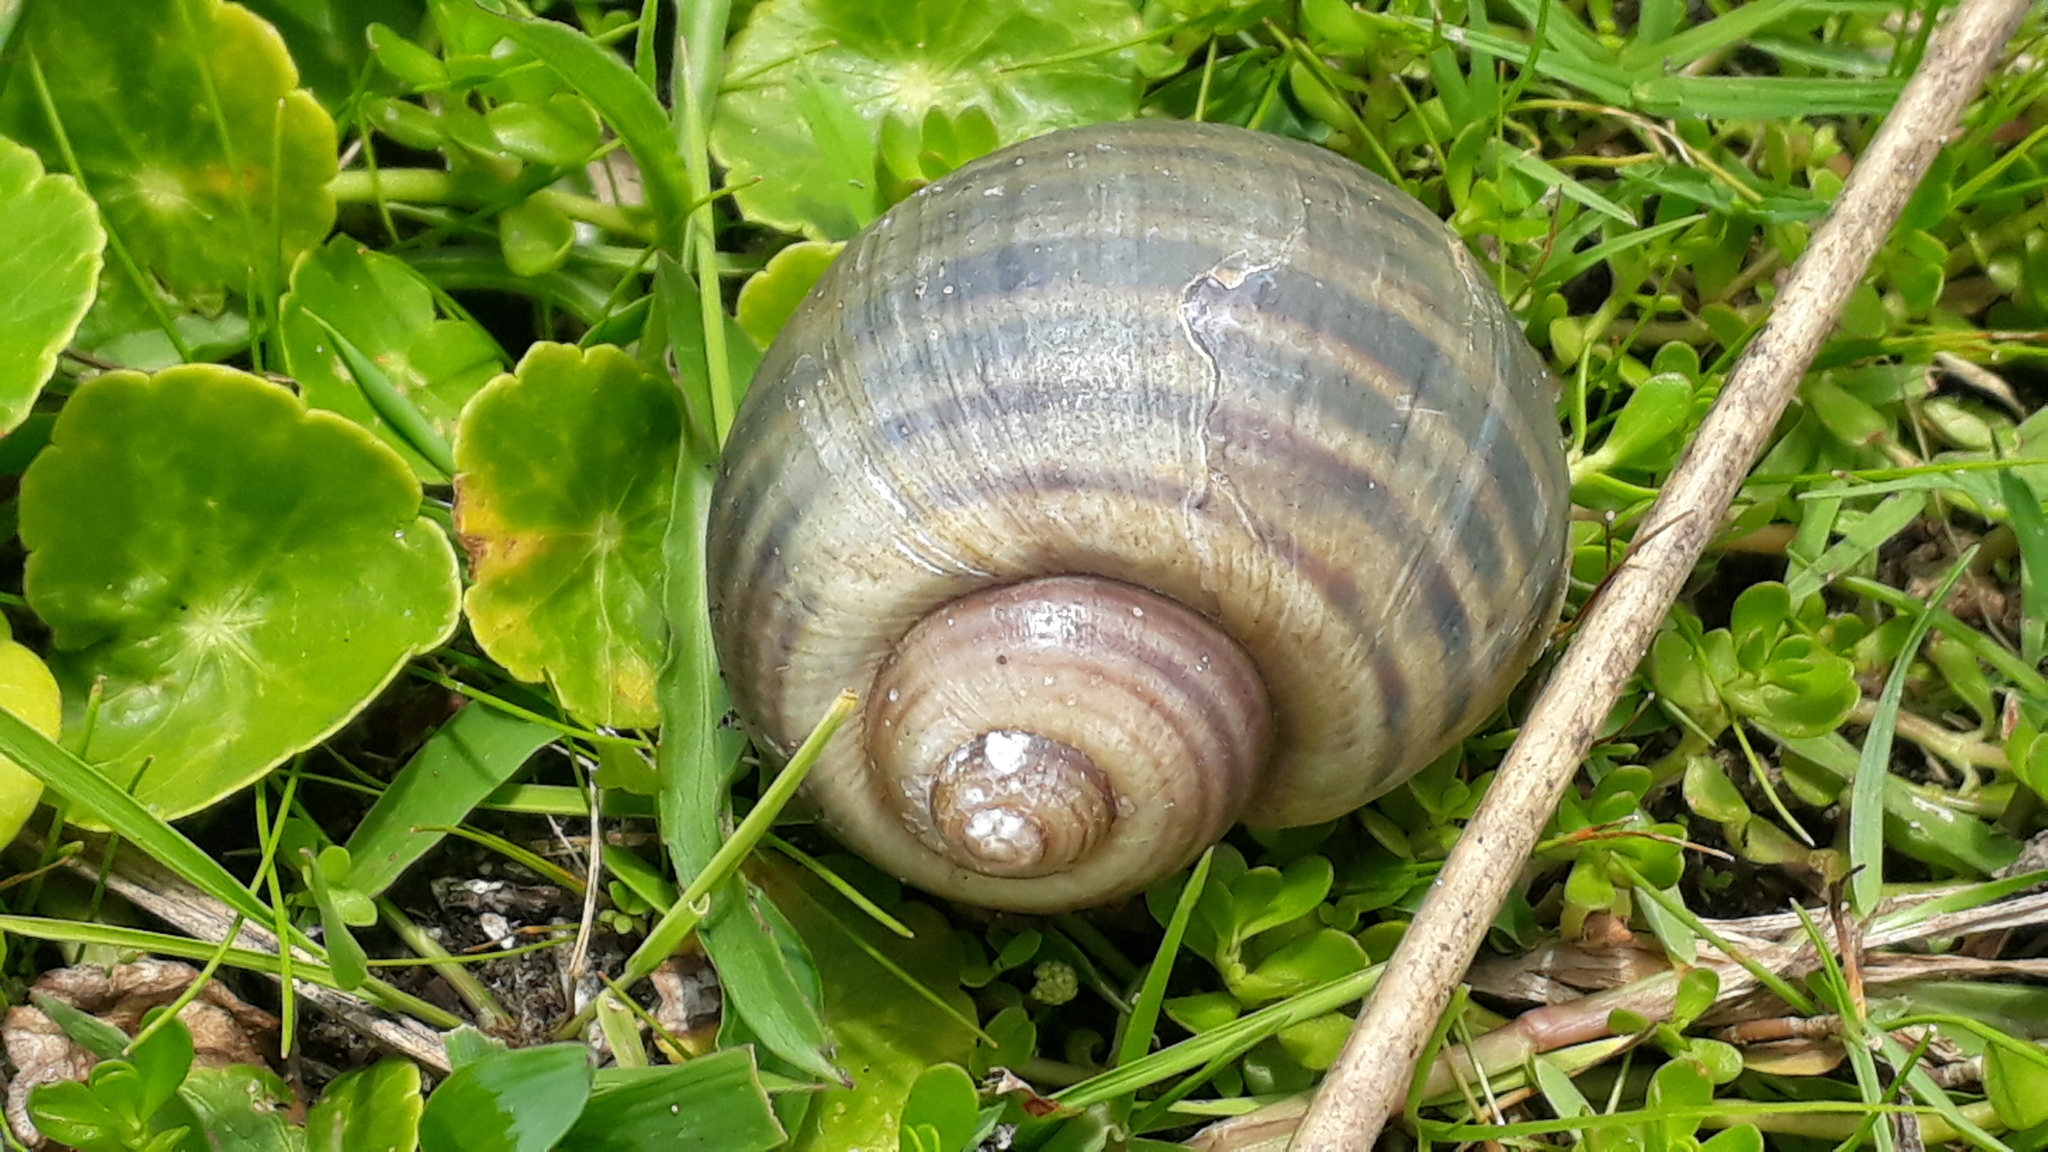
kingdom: Animalia
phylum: Mollusca
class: Gastropoda
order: Architaenioglossa
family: Ampullariidae
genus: Pomacea
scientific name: Pomacea canaliculata
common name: Channeled applesnail
